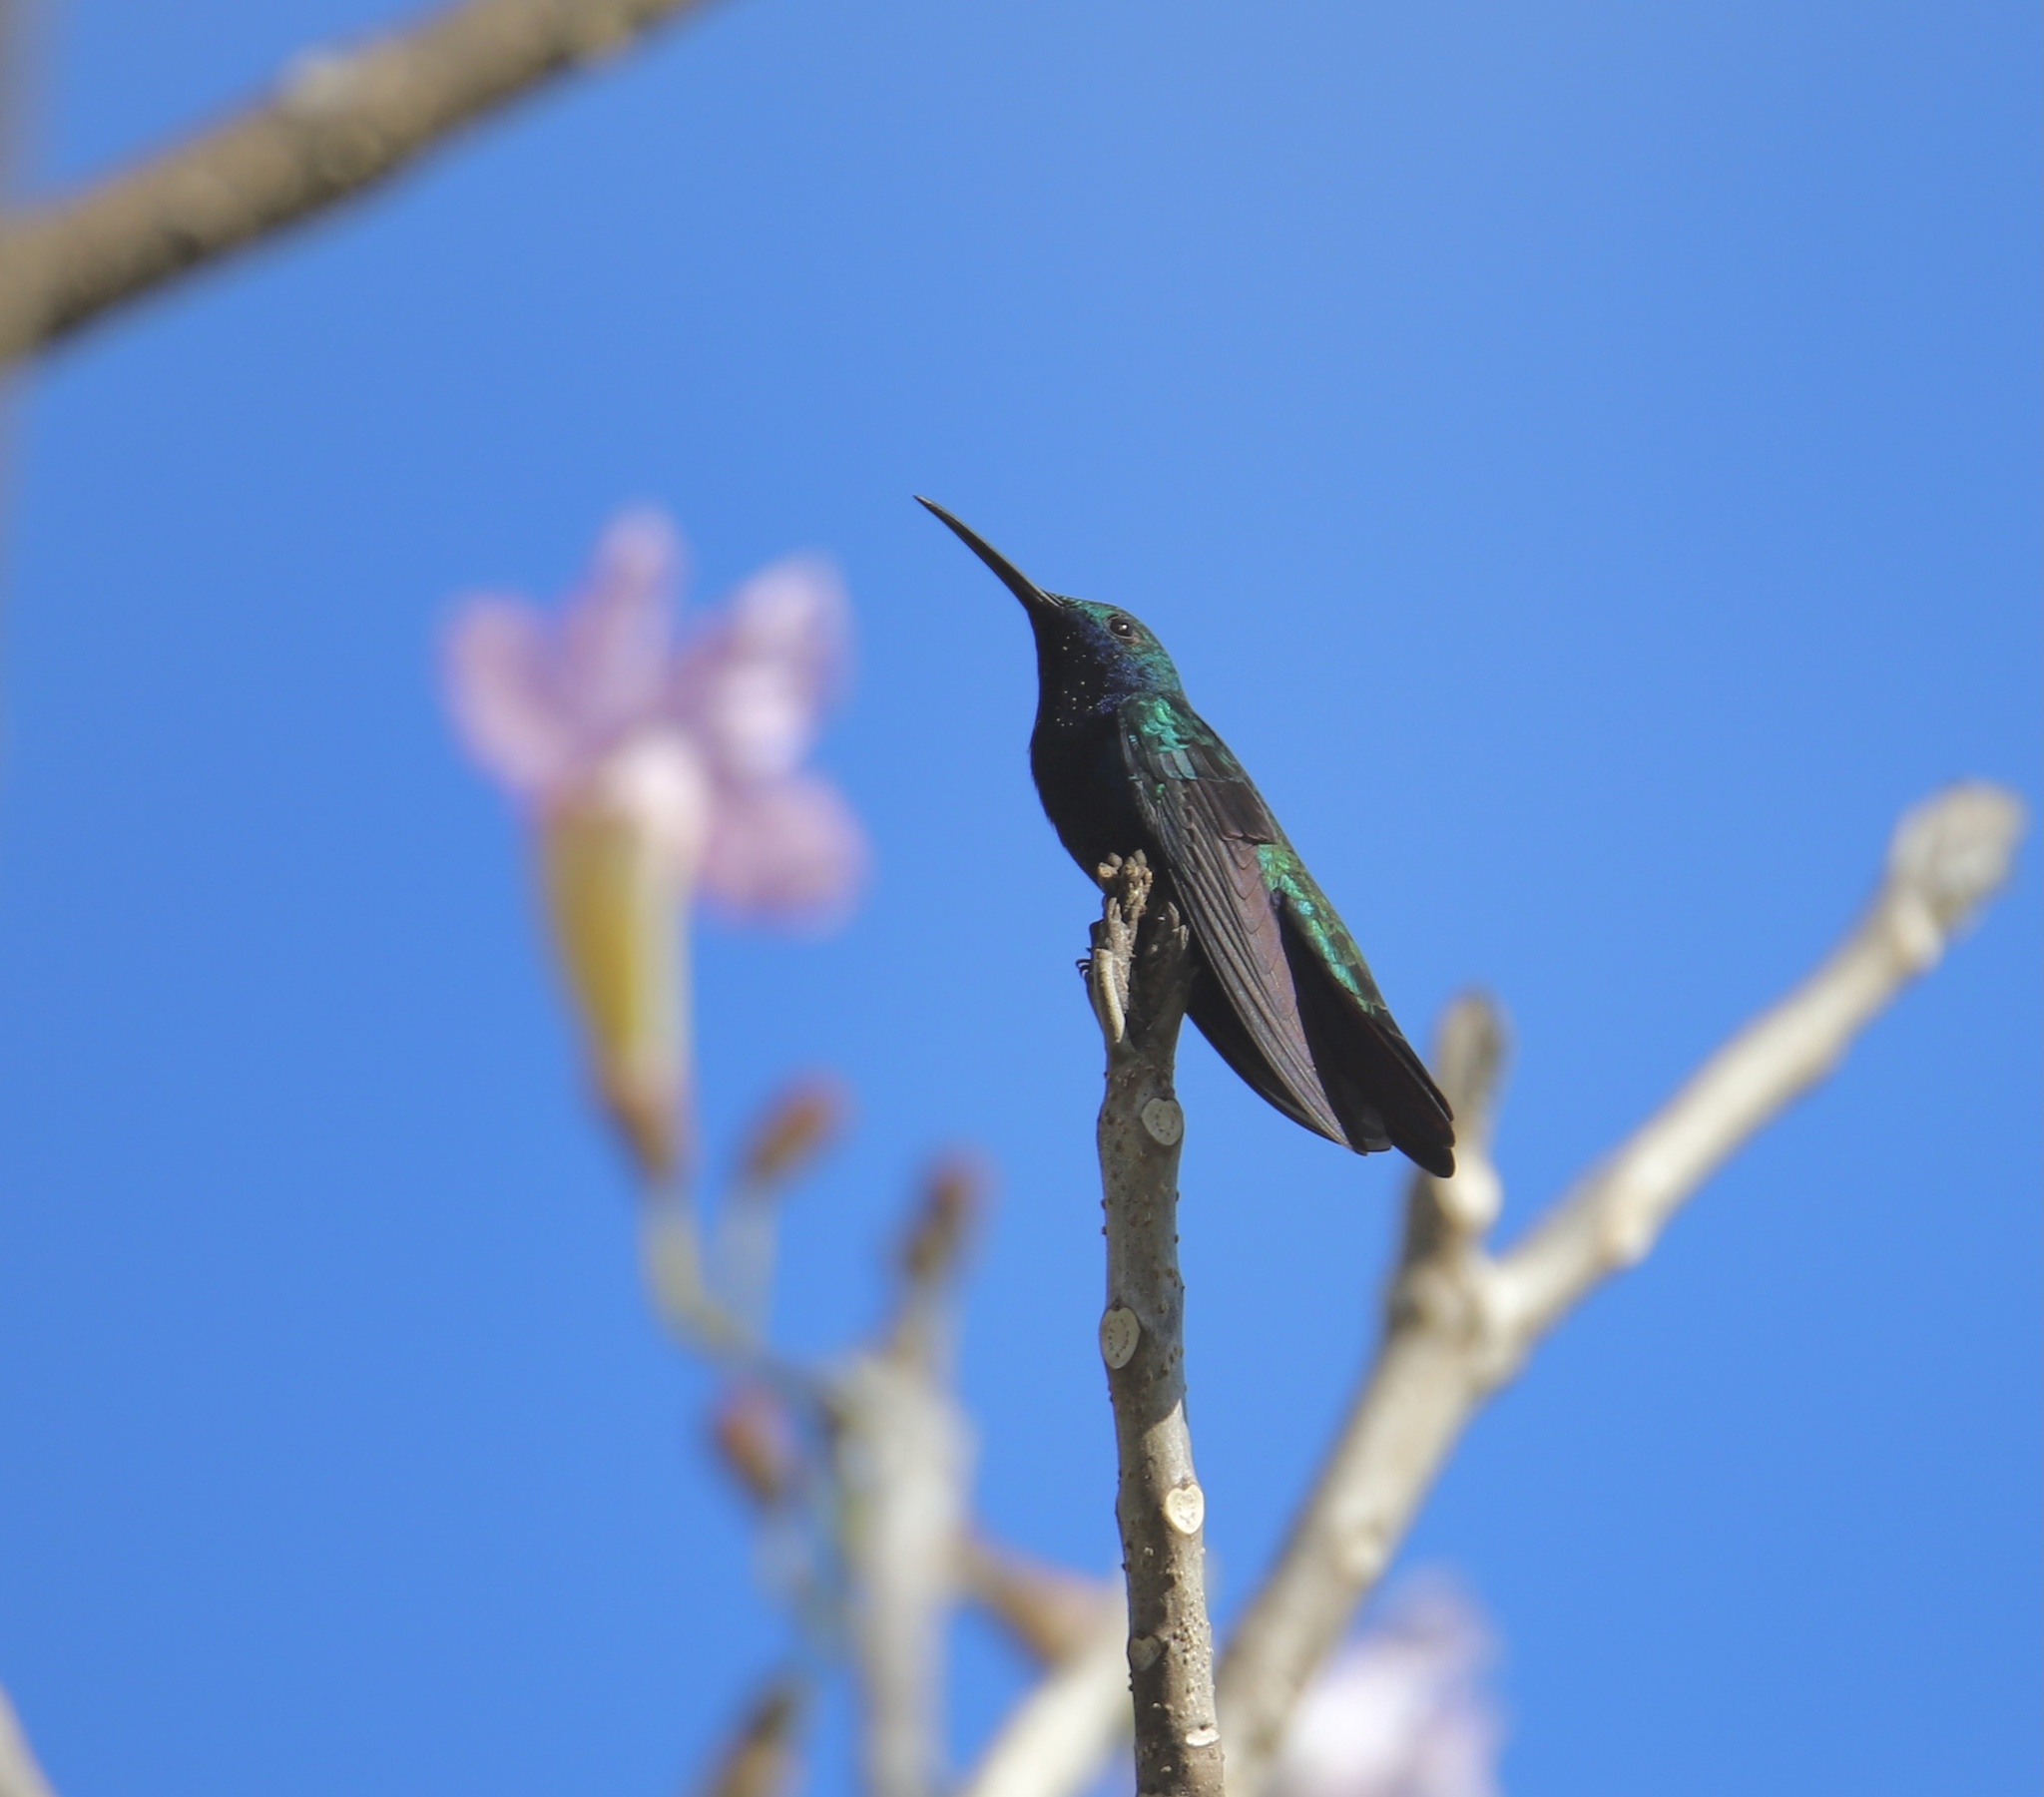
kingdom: Animalia
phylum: Chordata
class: Aves
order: Apodiformes
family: Trochilidae
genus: Chrysuronia
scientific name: Chrysuronia coeruleogularis
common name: Sapphire-throated hummingbird
